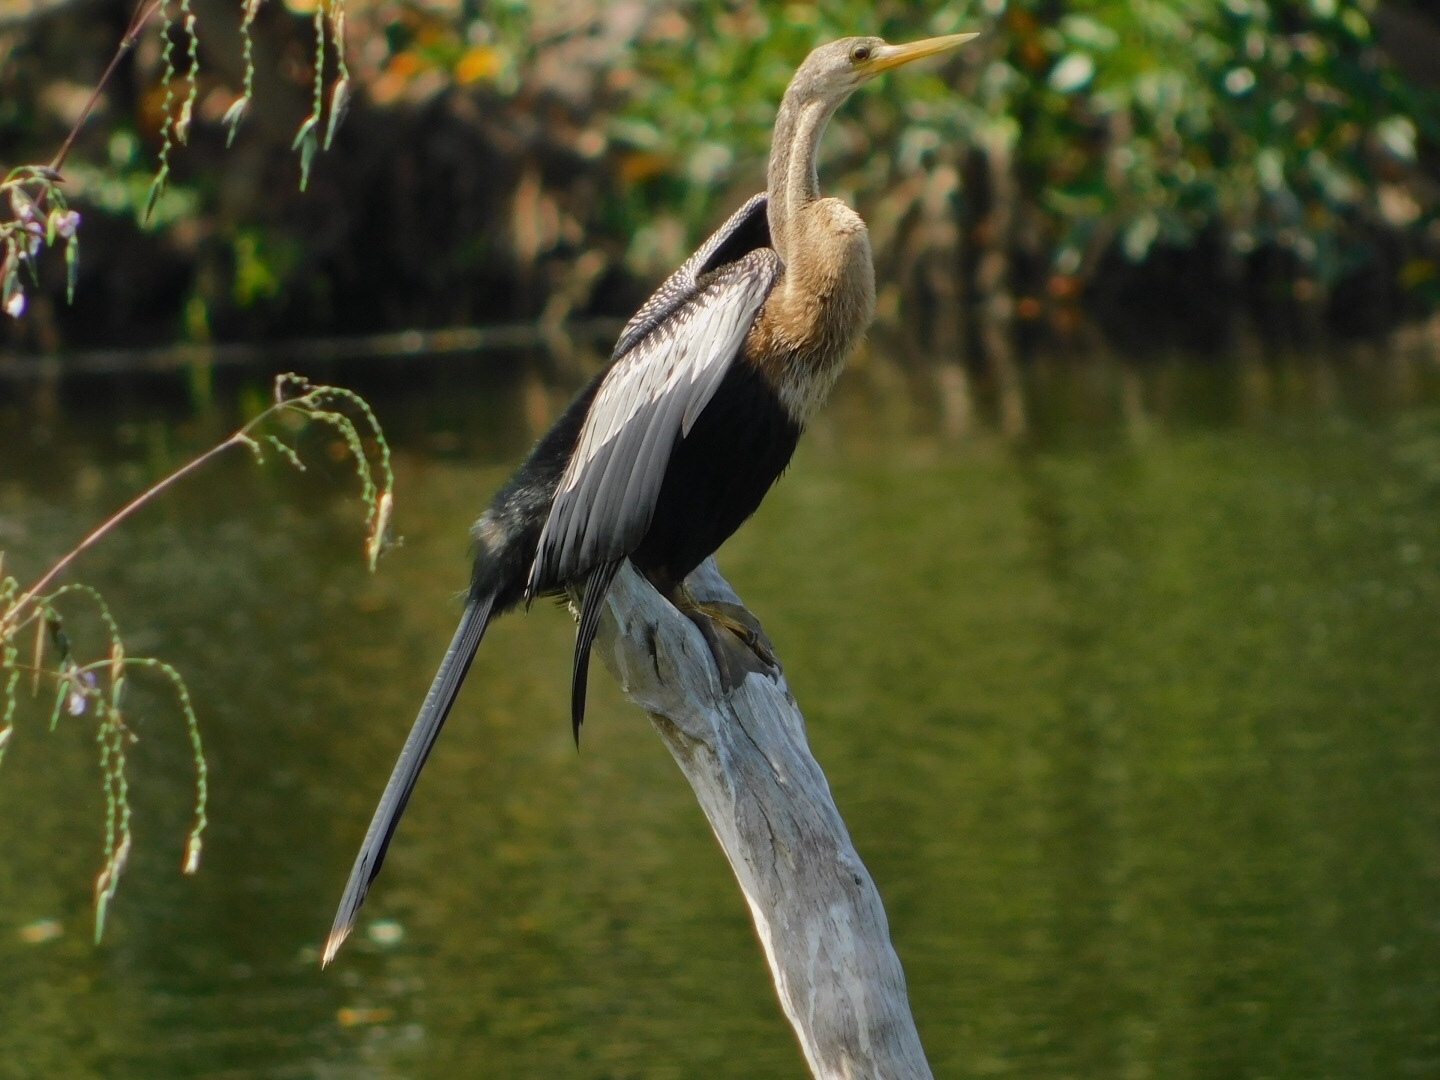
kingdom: Animalia
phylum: Chordata
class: Aves
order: Suliformes
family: Anhingidae
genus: Anhinga
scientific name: Anhinga anhinga
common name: Anhinga
